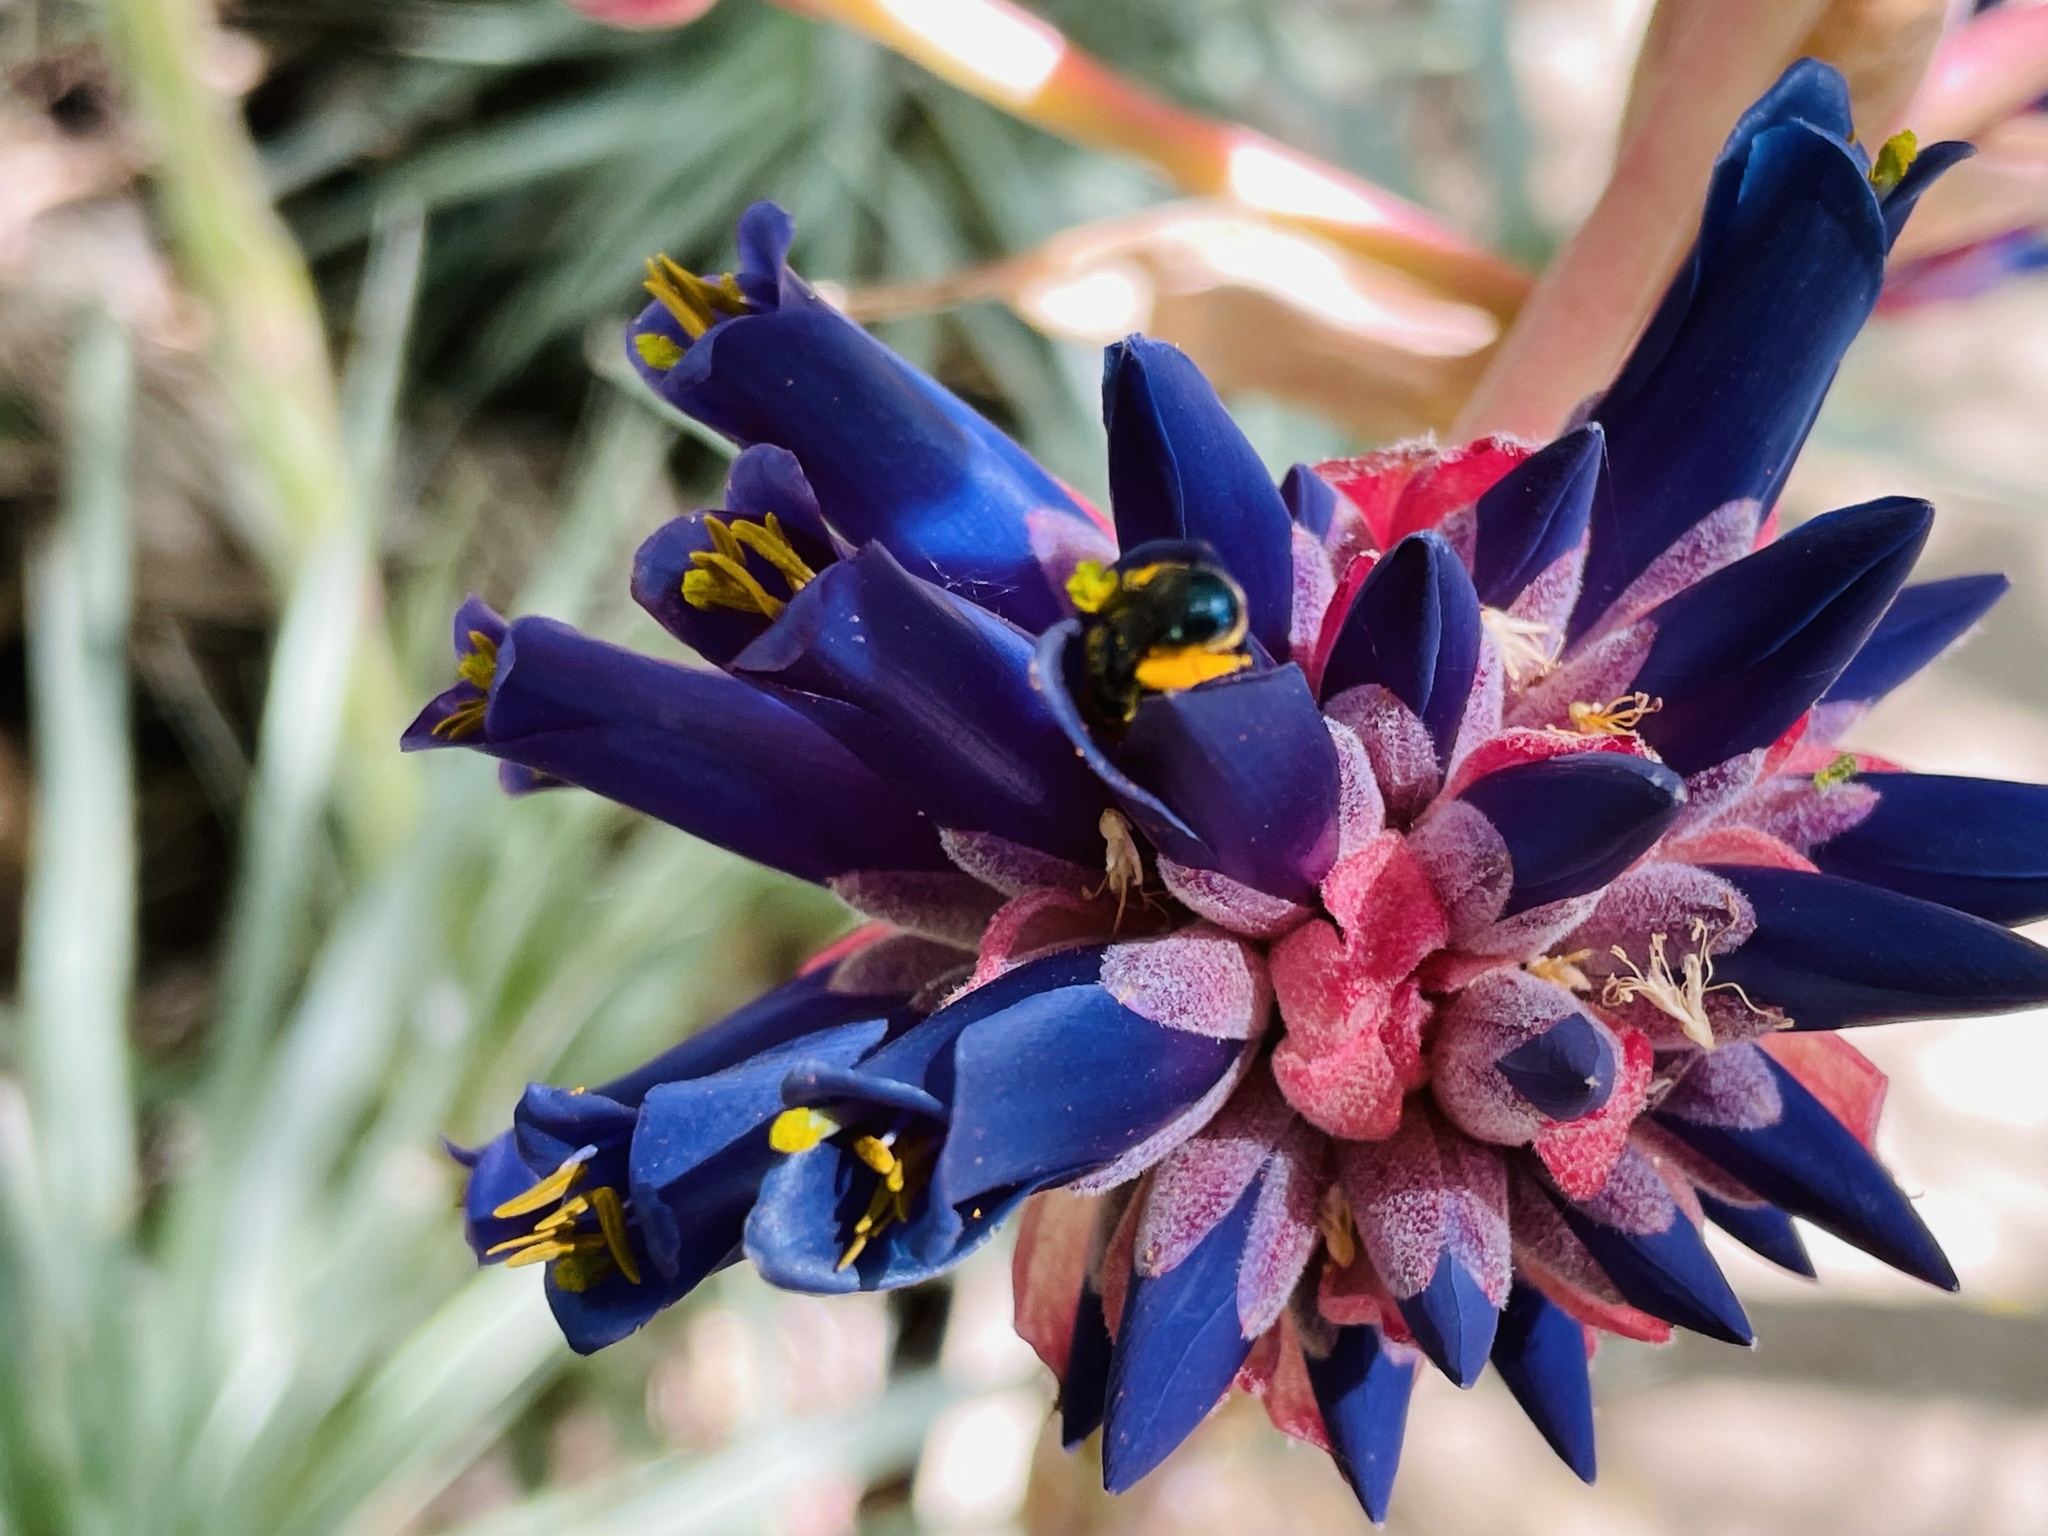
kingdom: Animalia
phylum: Arthropoda
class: Insecta
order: Hymenoptera
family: Apidae
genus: Manuelia
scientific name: Manuelia gayi
